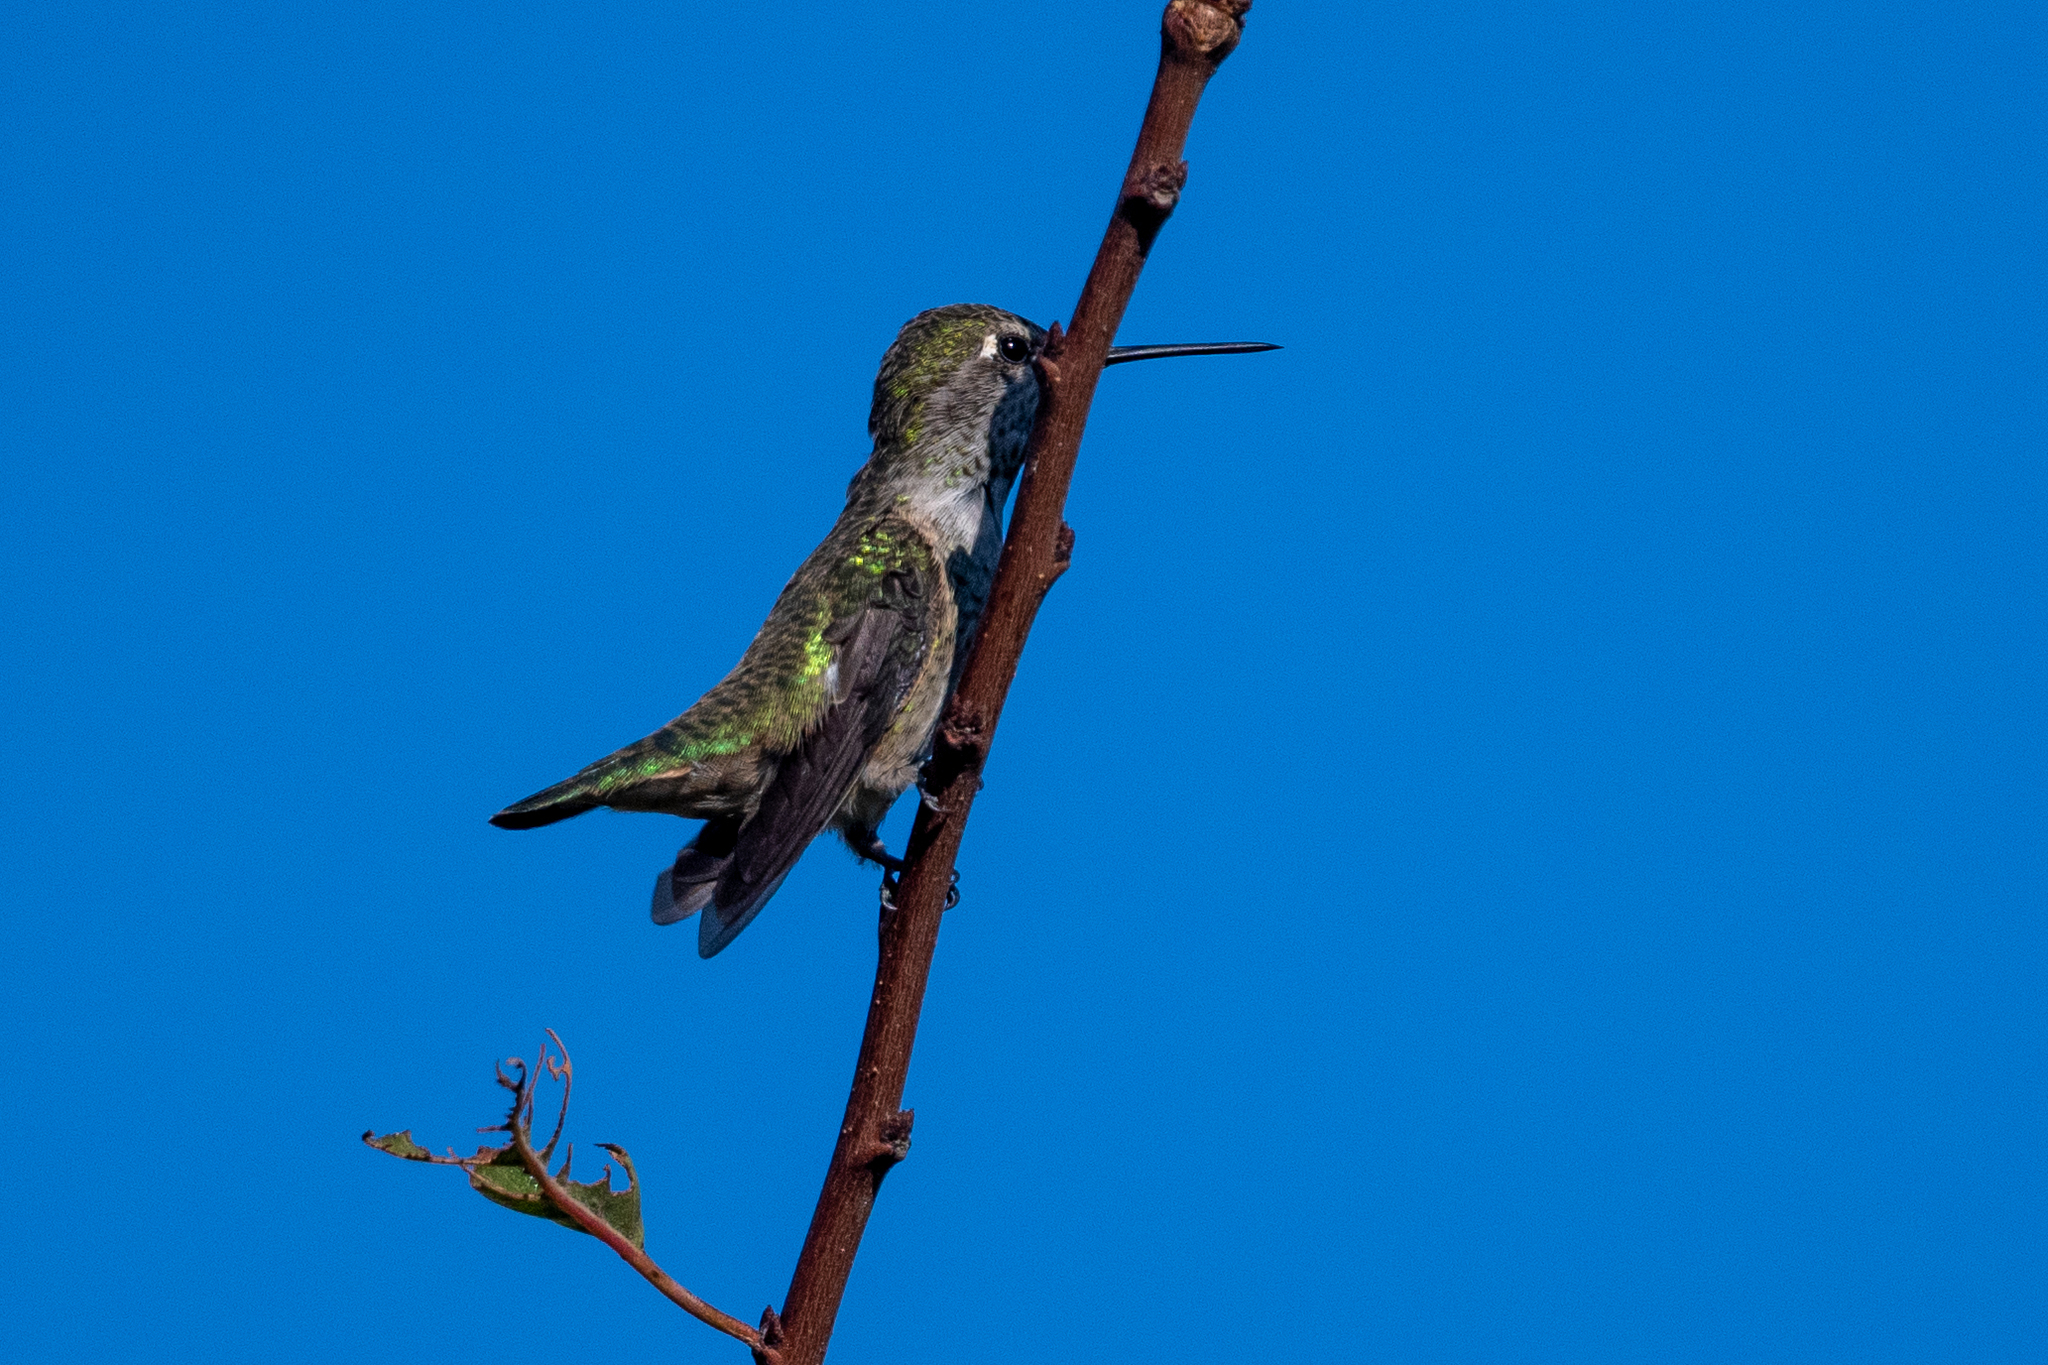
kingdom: Animalia
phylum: Chordata
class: Aves
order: Apodiformes
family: Trochilidae
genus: Calypte
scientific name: Calypte anna
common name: Anna's hummingbird
